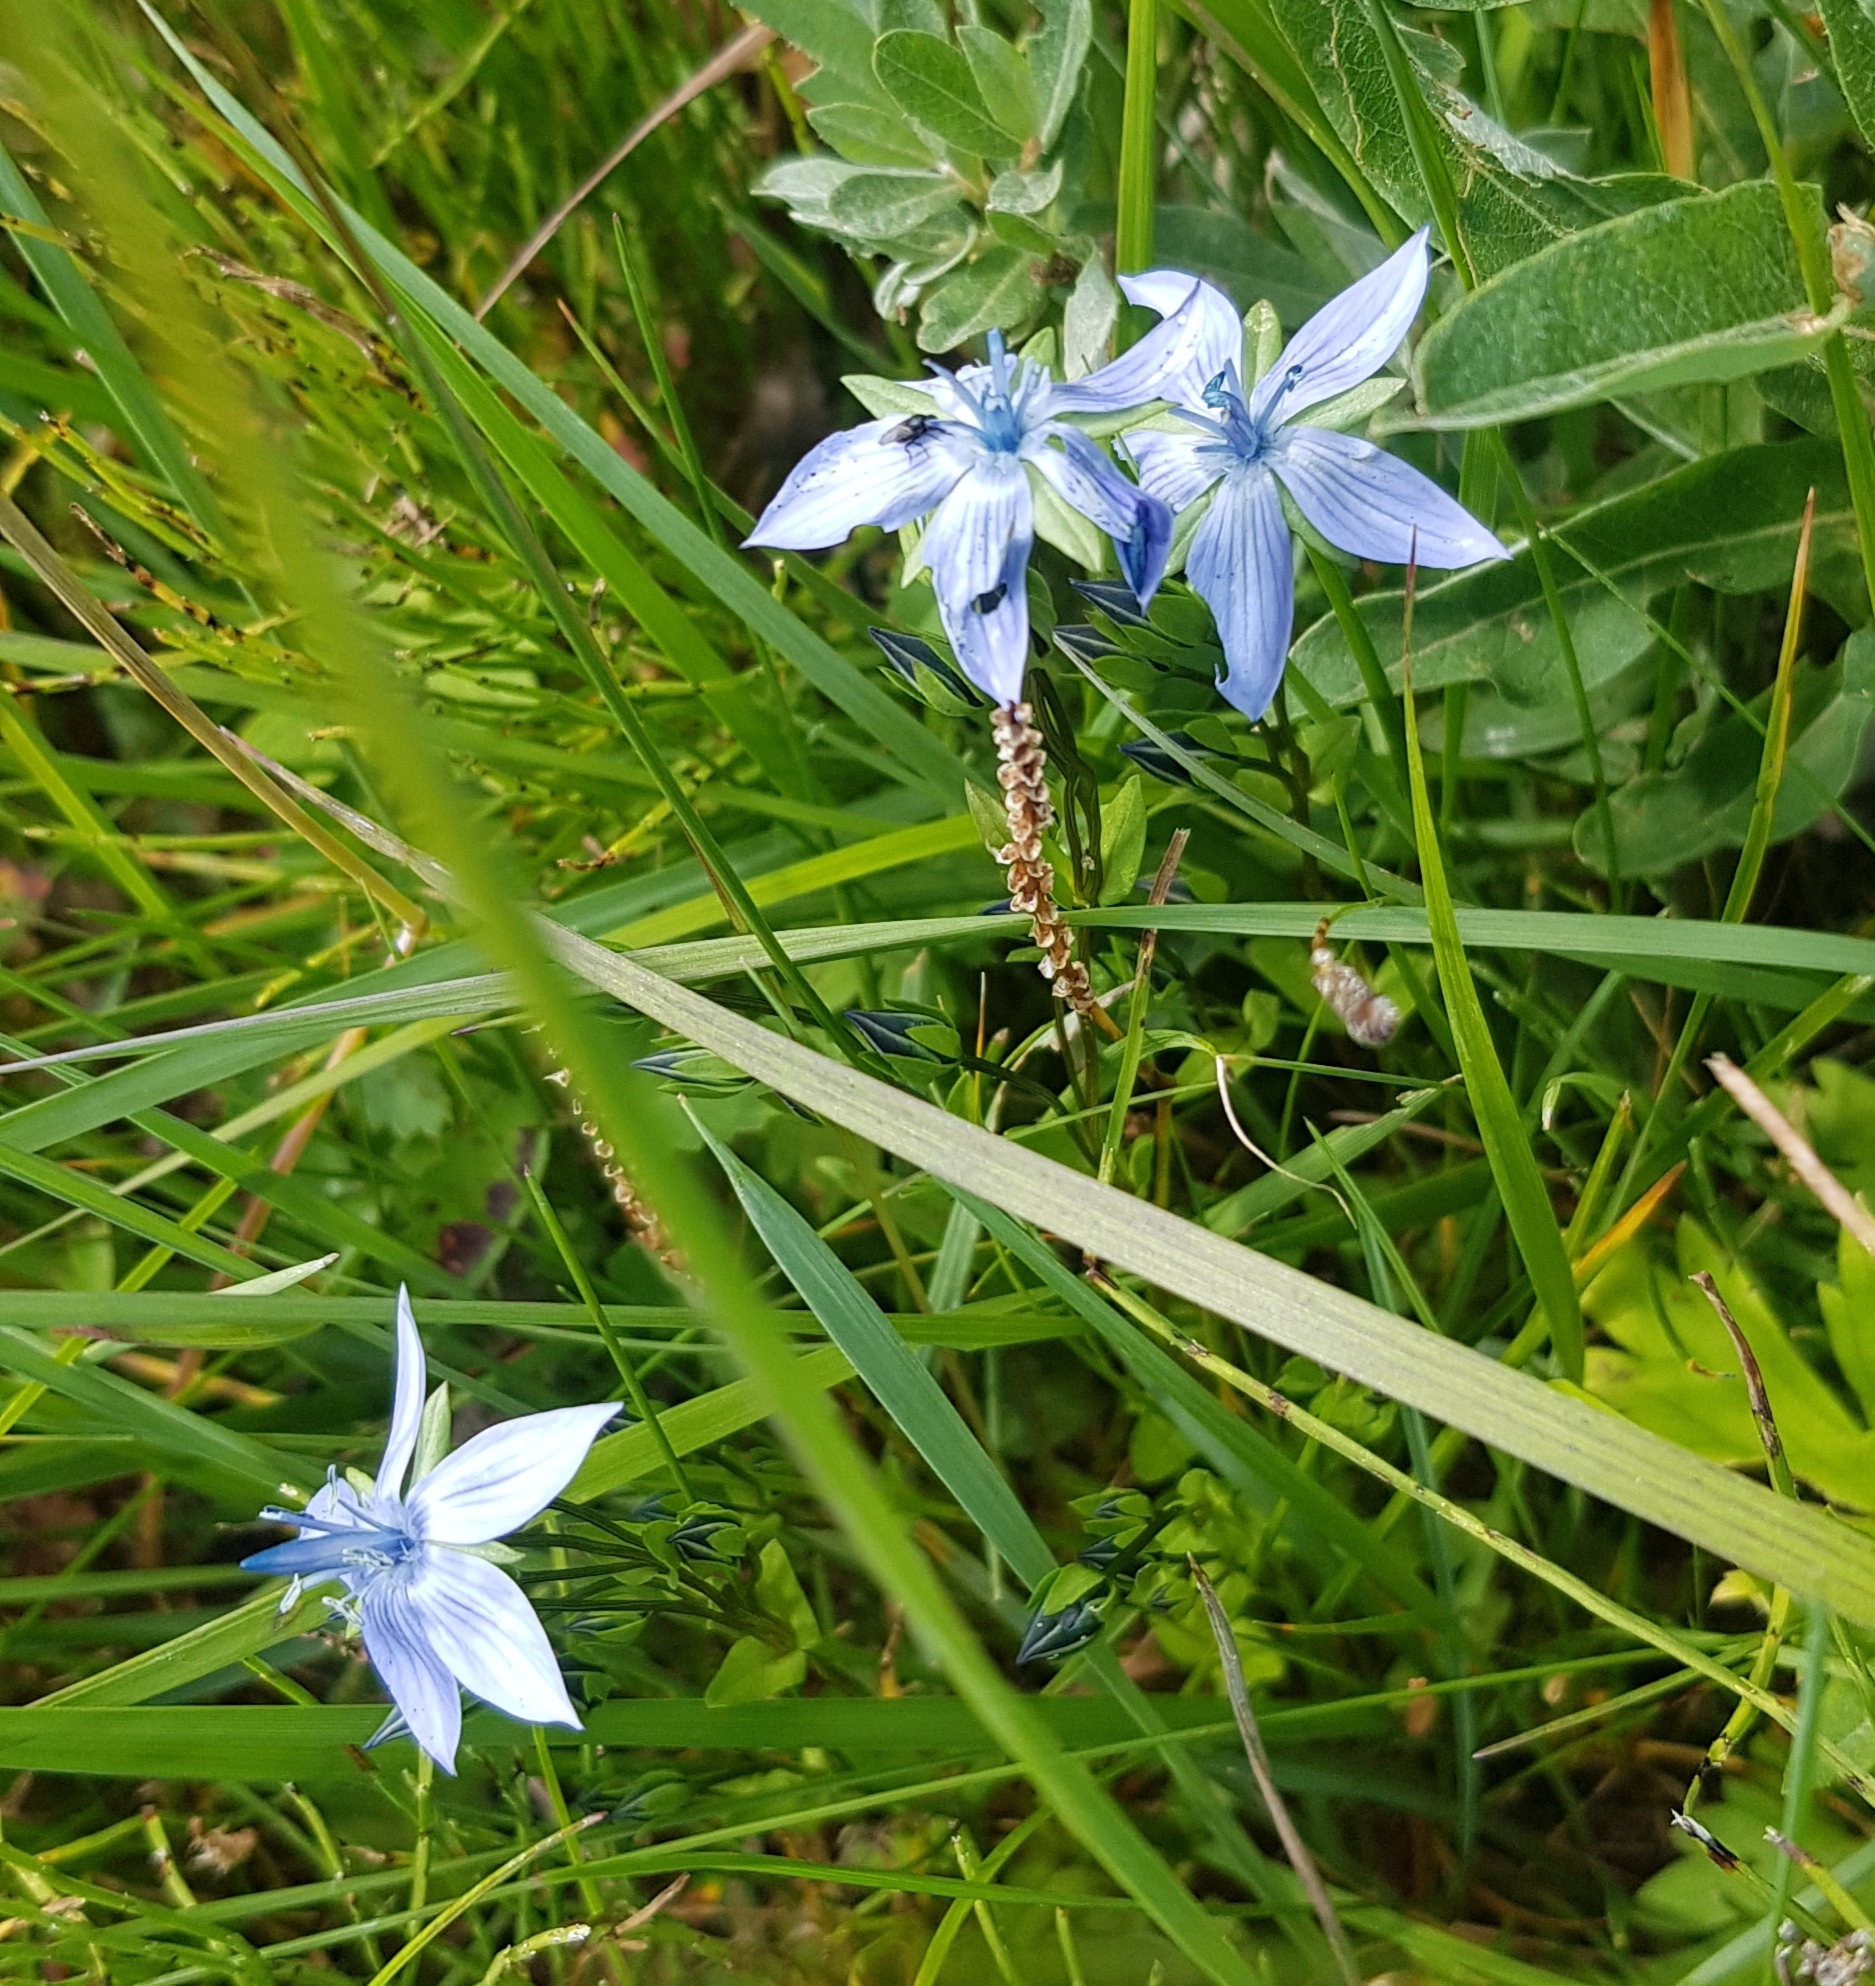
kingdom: Plantae
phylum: Tracheophyta
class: Magnoliopsida
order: Gentianales
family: Gentianaceae
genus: Lomatogonium
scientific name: Lomatogonium carinthiacum
